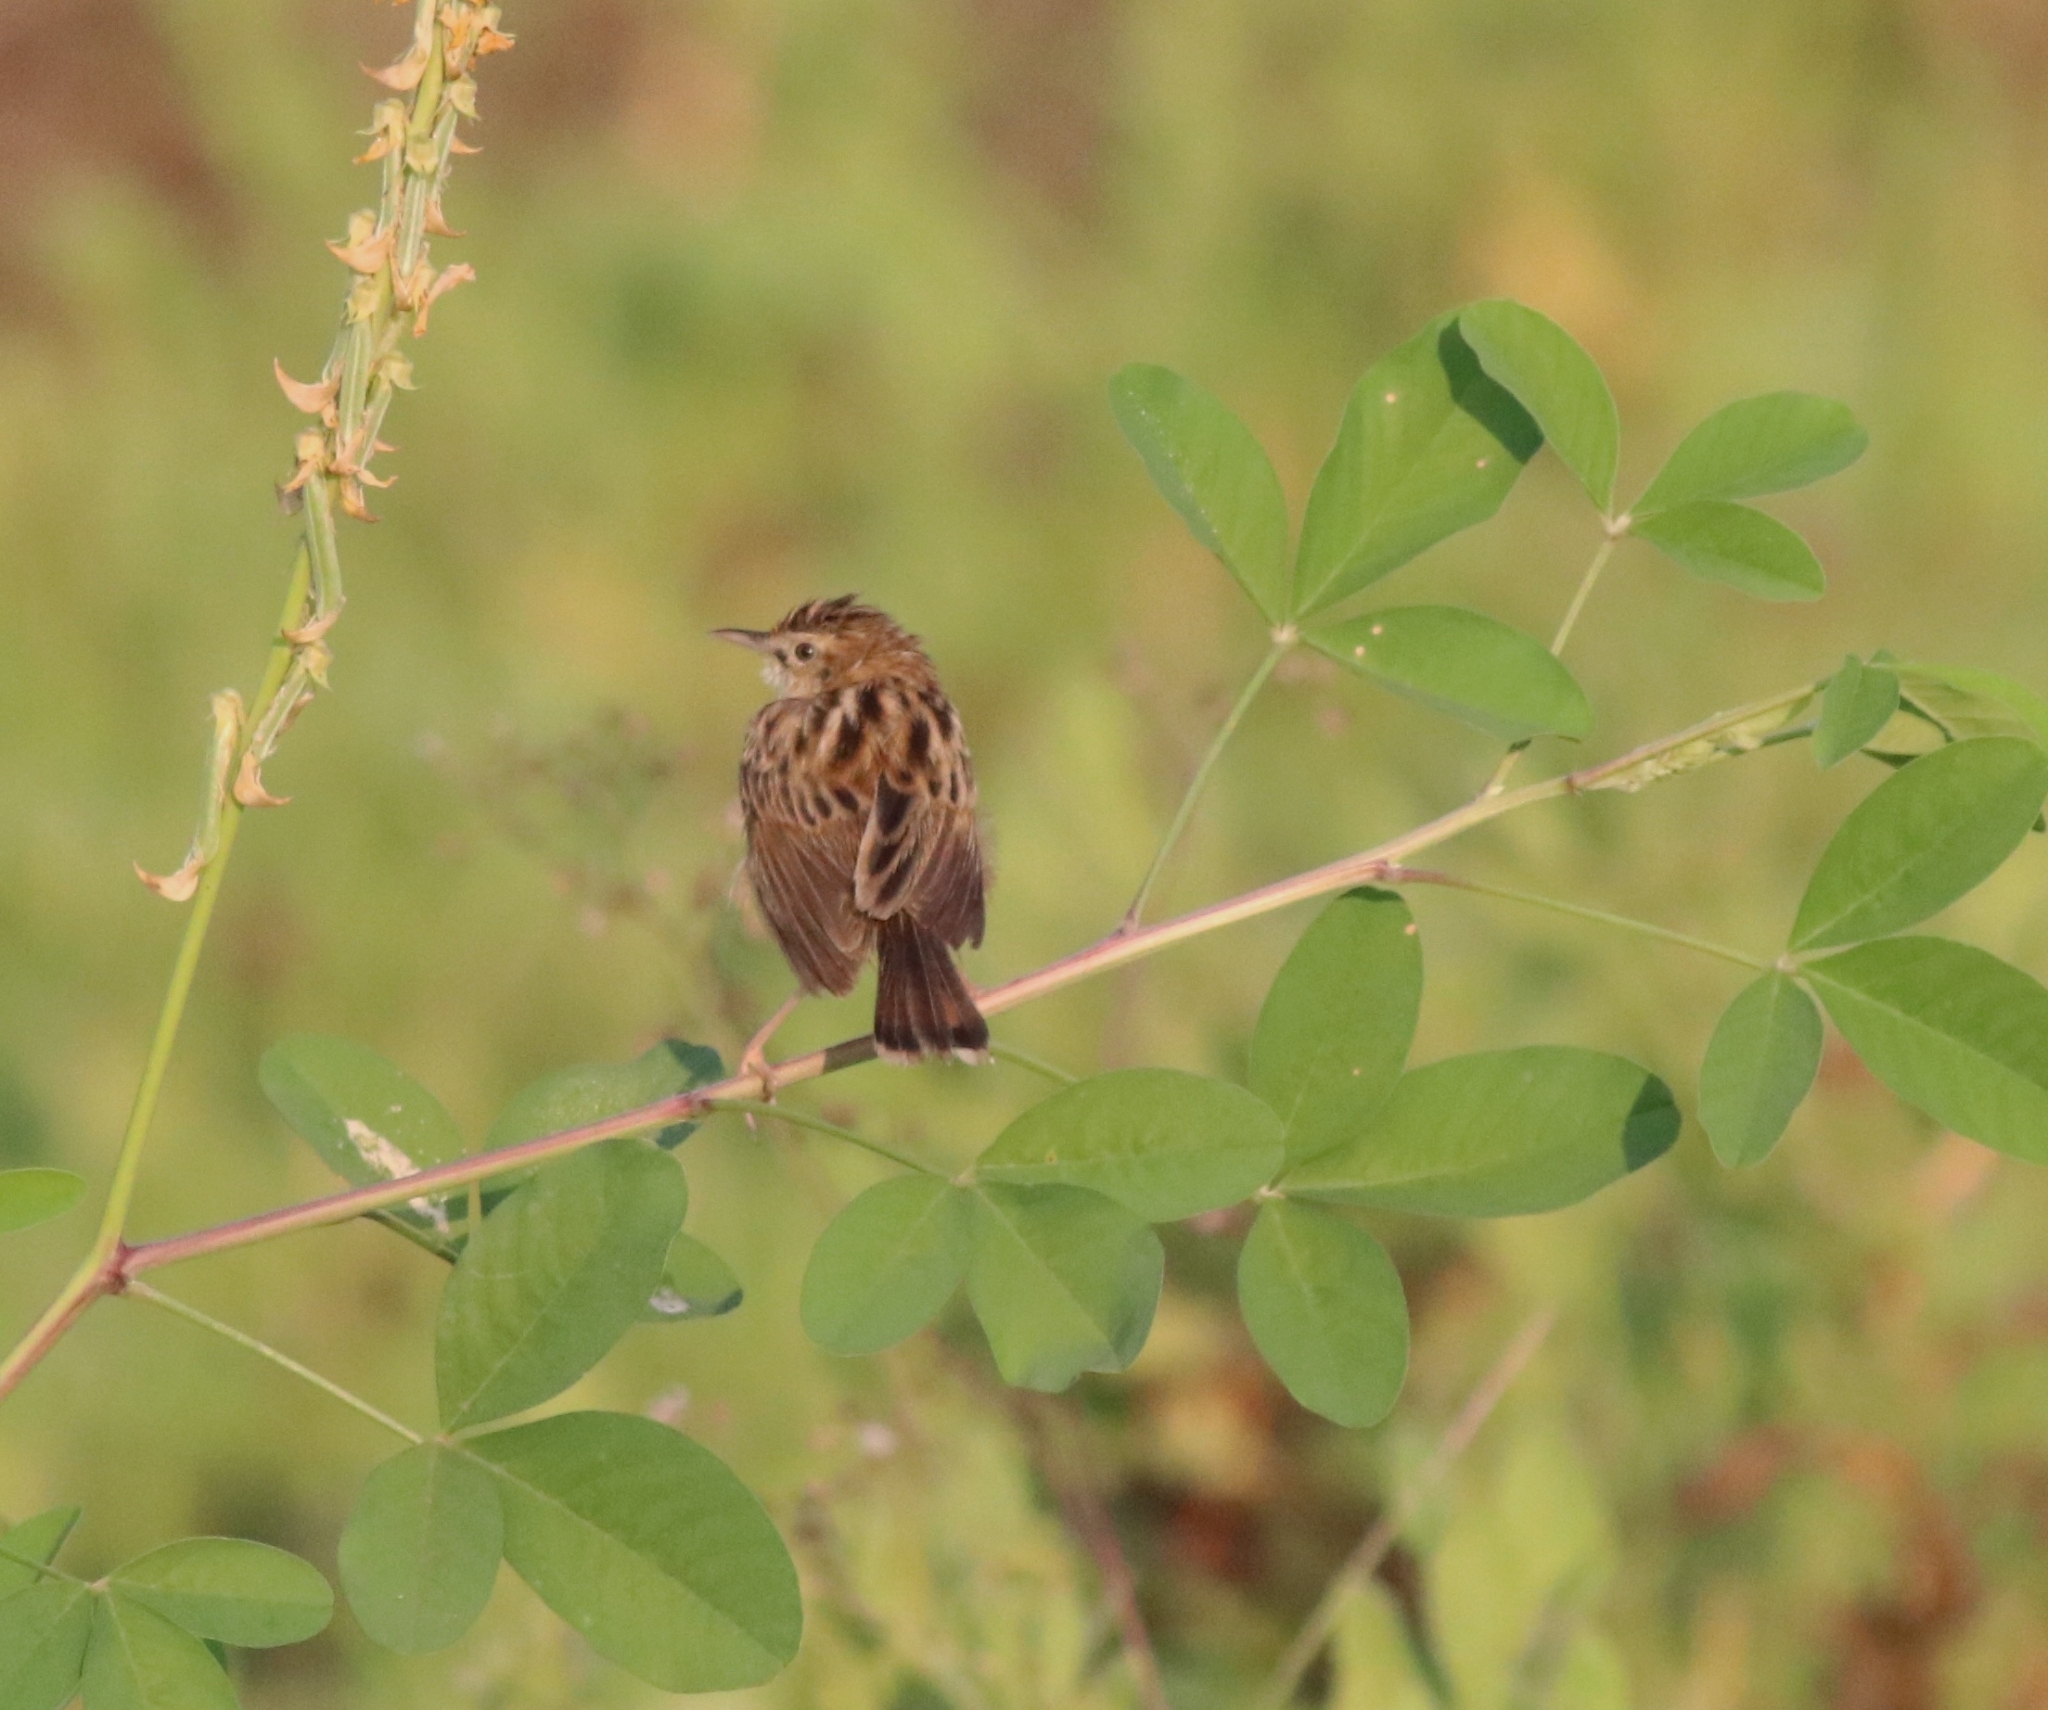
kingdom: Animalia
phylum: Chordata
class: Aves
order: Passeriformes
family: Cisticolidae
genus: Cisticola
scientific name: Cisticola juncidis
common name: Zitting cisticola
